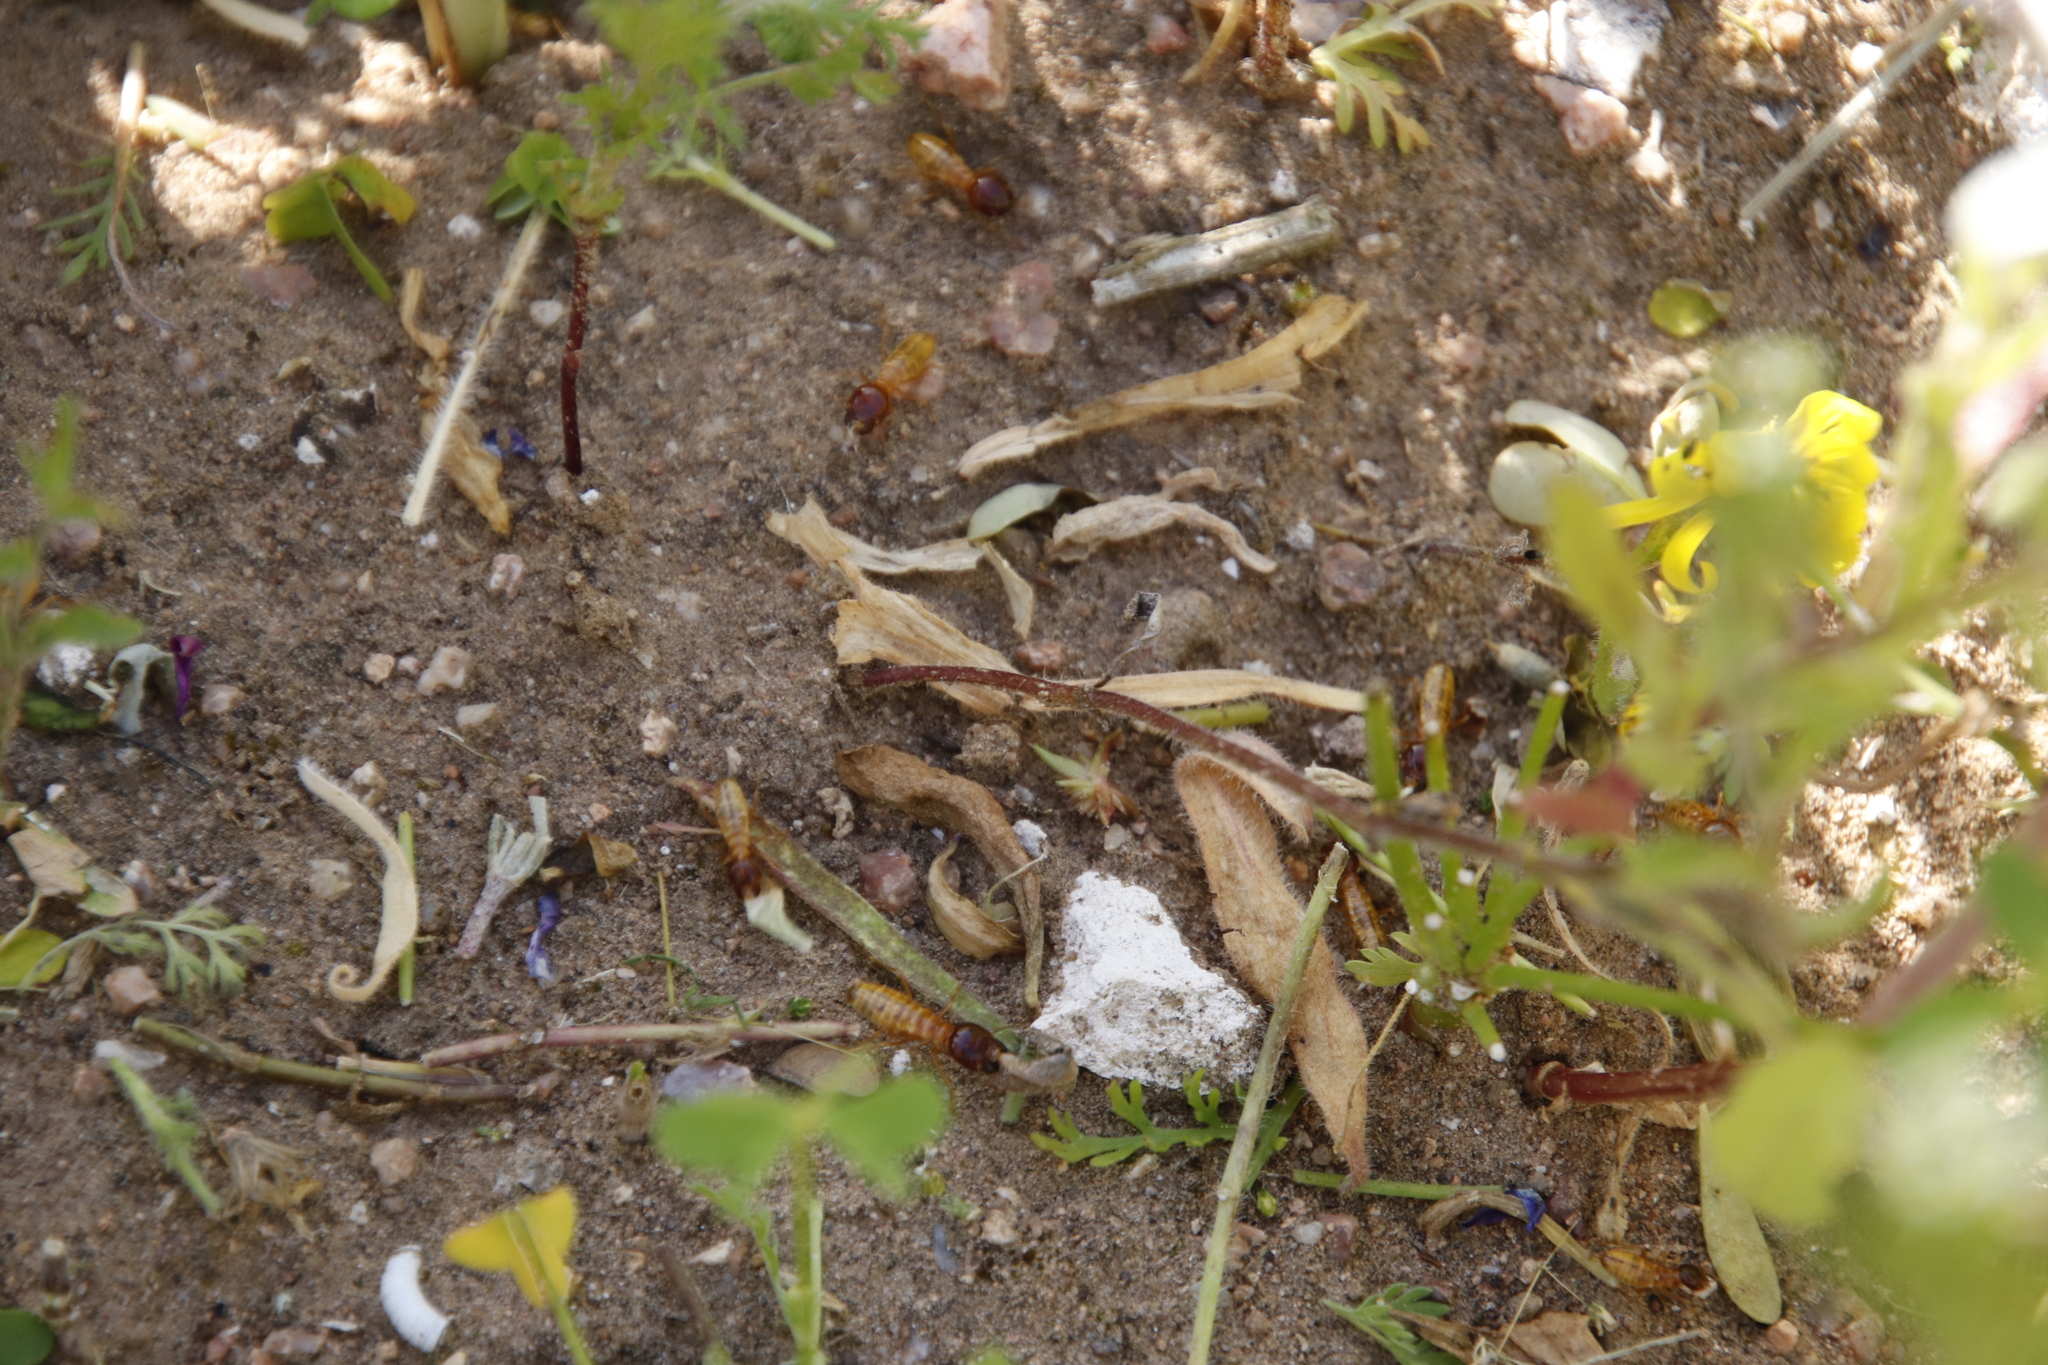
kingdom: Animalia
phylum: Arthropoda
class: Insecta
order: Blattodea
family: Hodotermitidae
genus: Microhodotermes
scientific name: Microhodotermes viator
